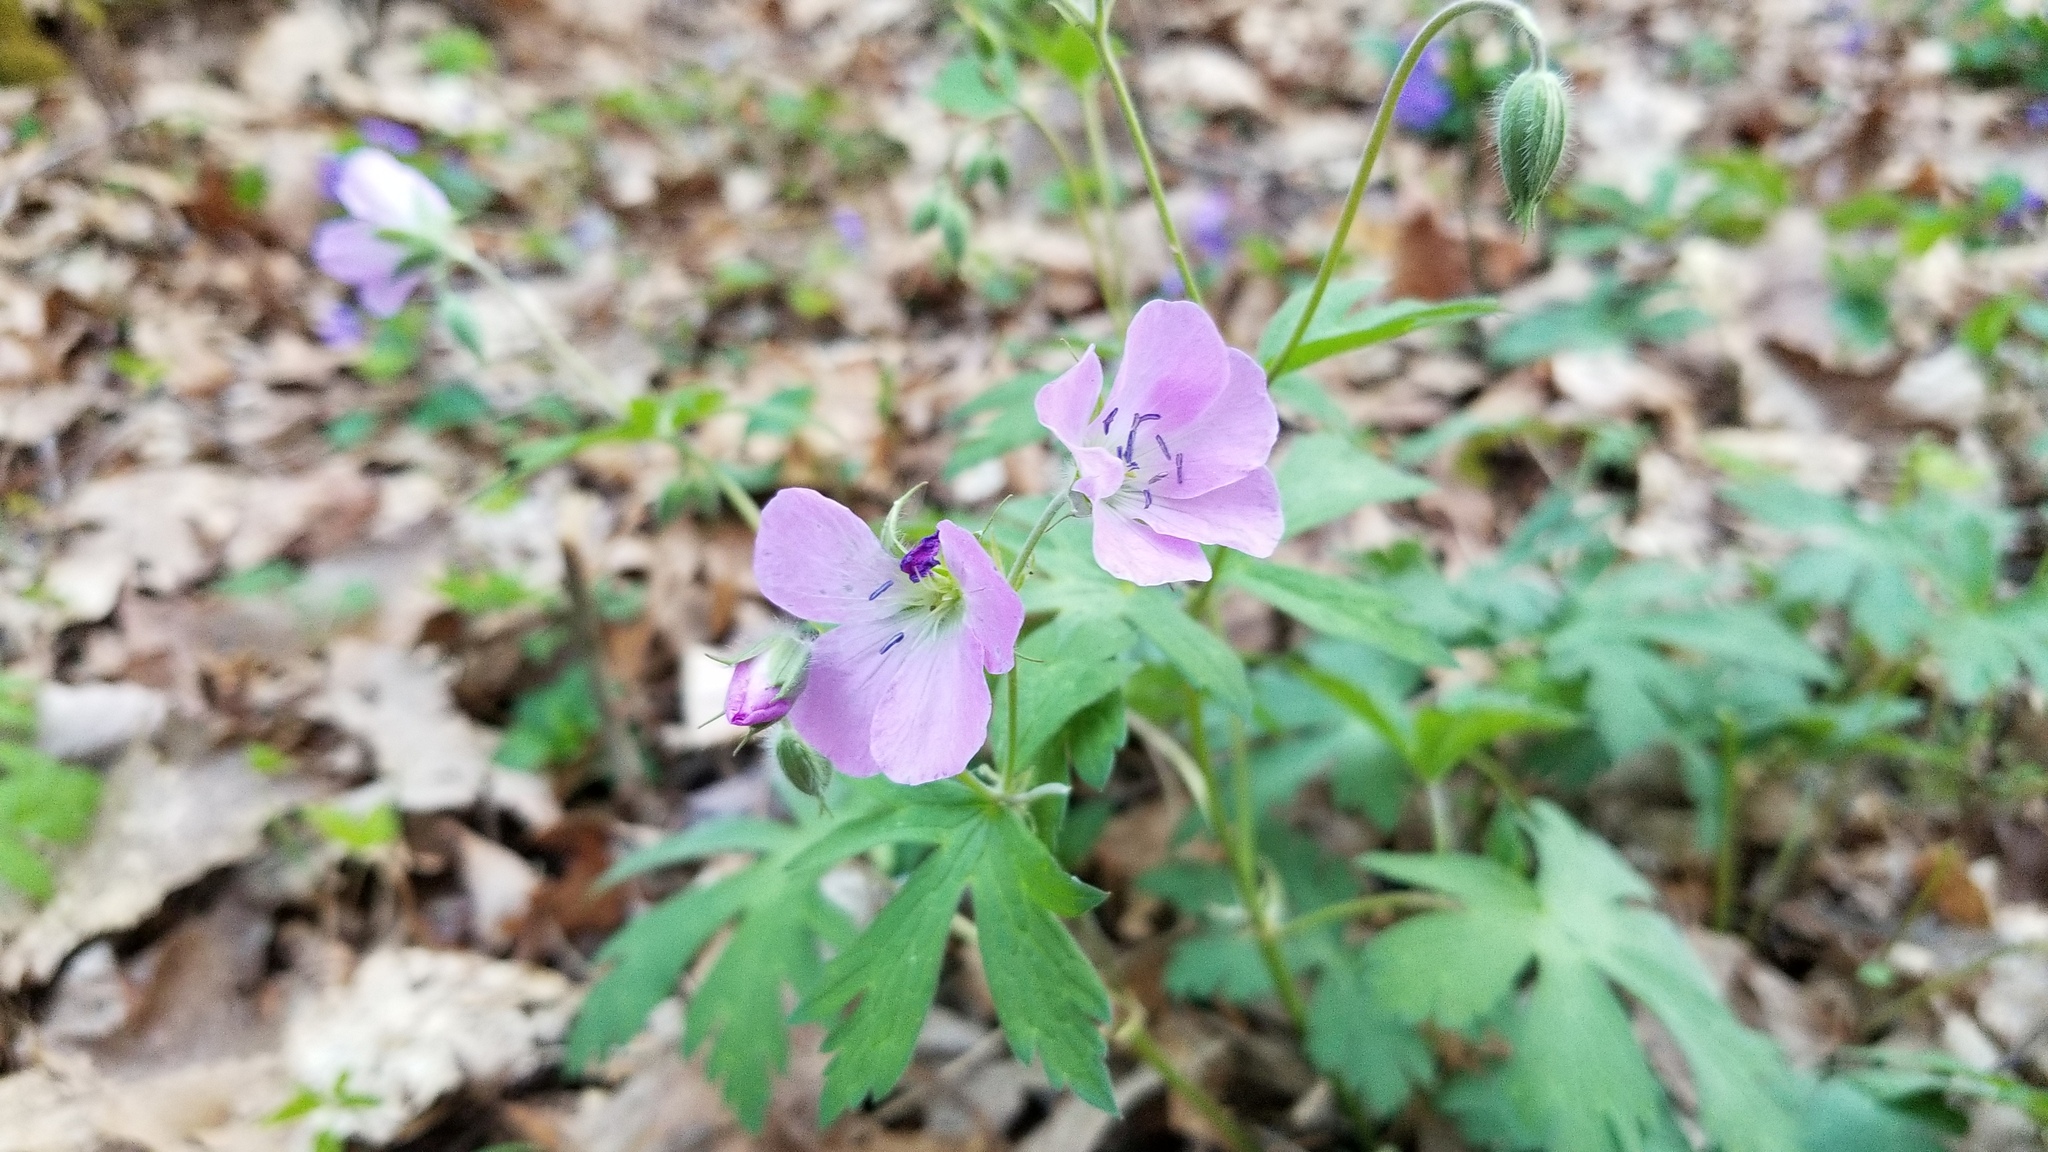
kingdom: Plantae
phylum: Tracheophyta
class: Magnoliopsida
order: Geraniales
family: Geraniaceae
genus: Geranium
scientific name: Geranium maculatum
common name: Spotted geranium
